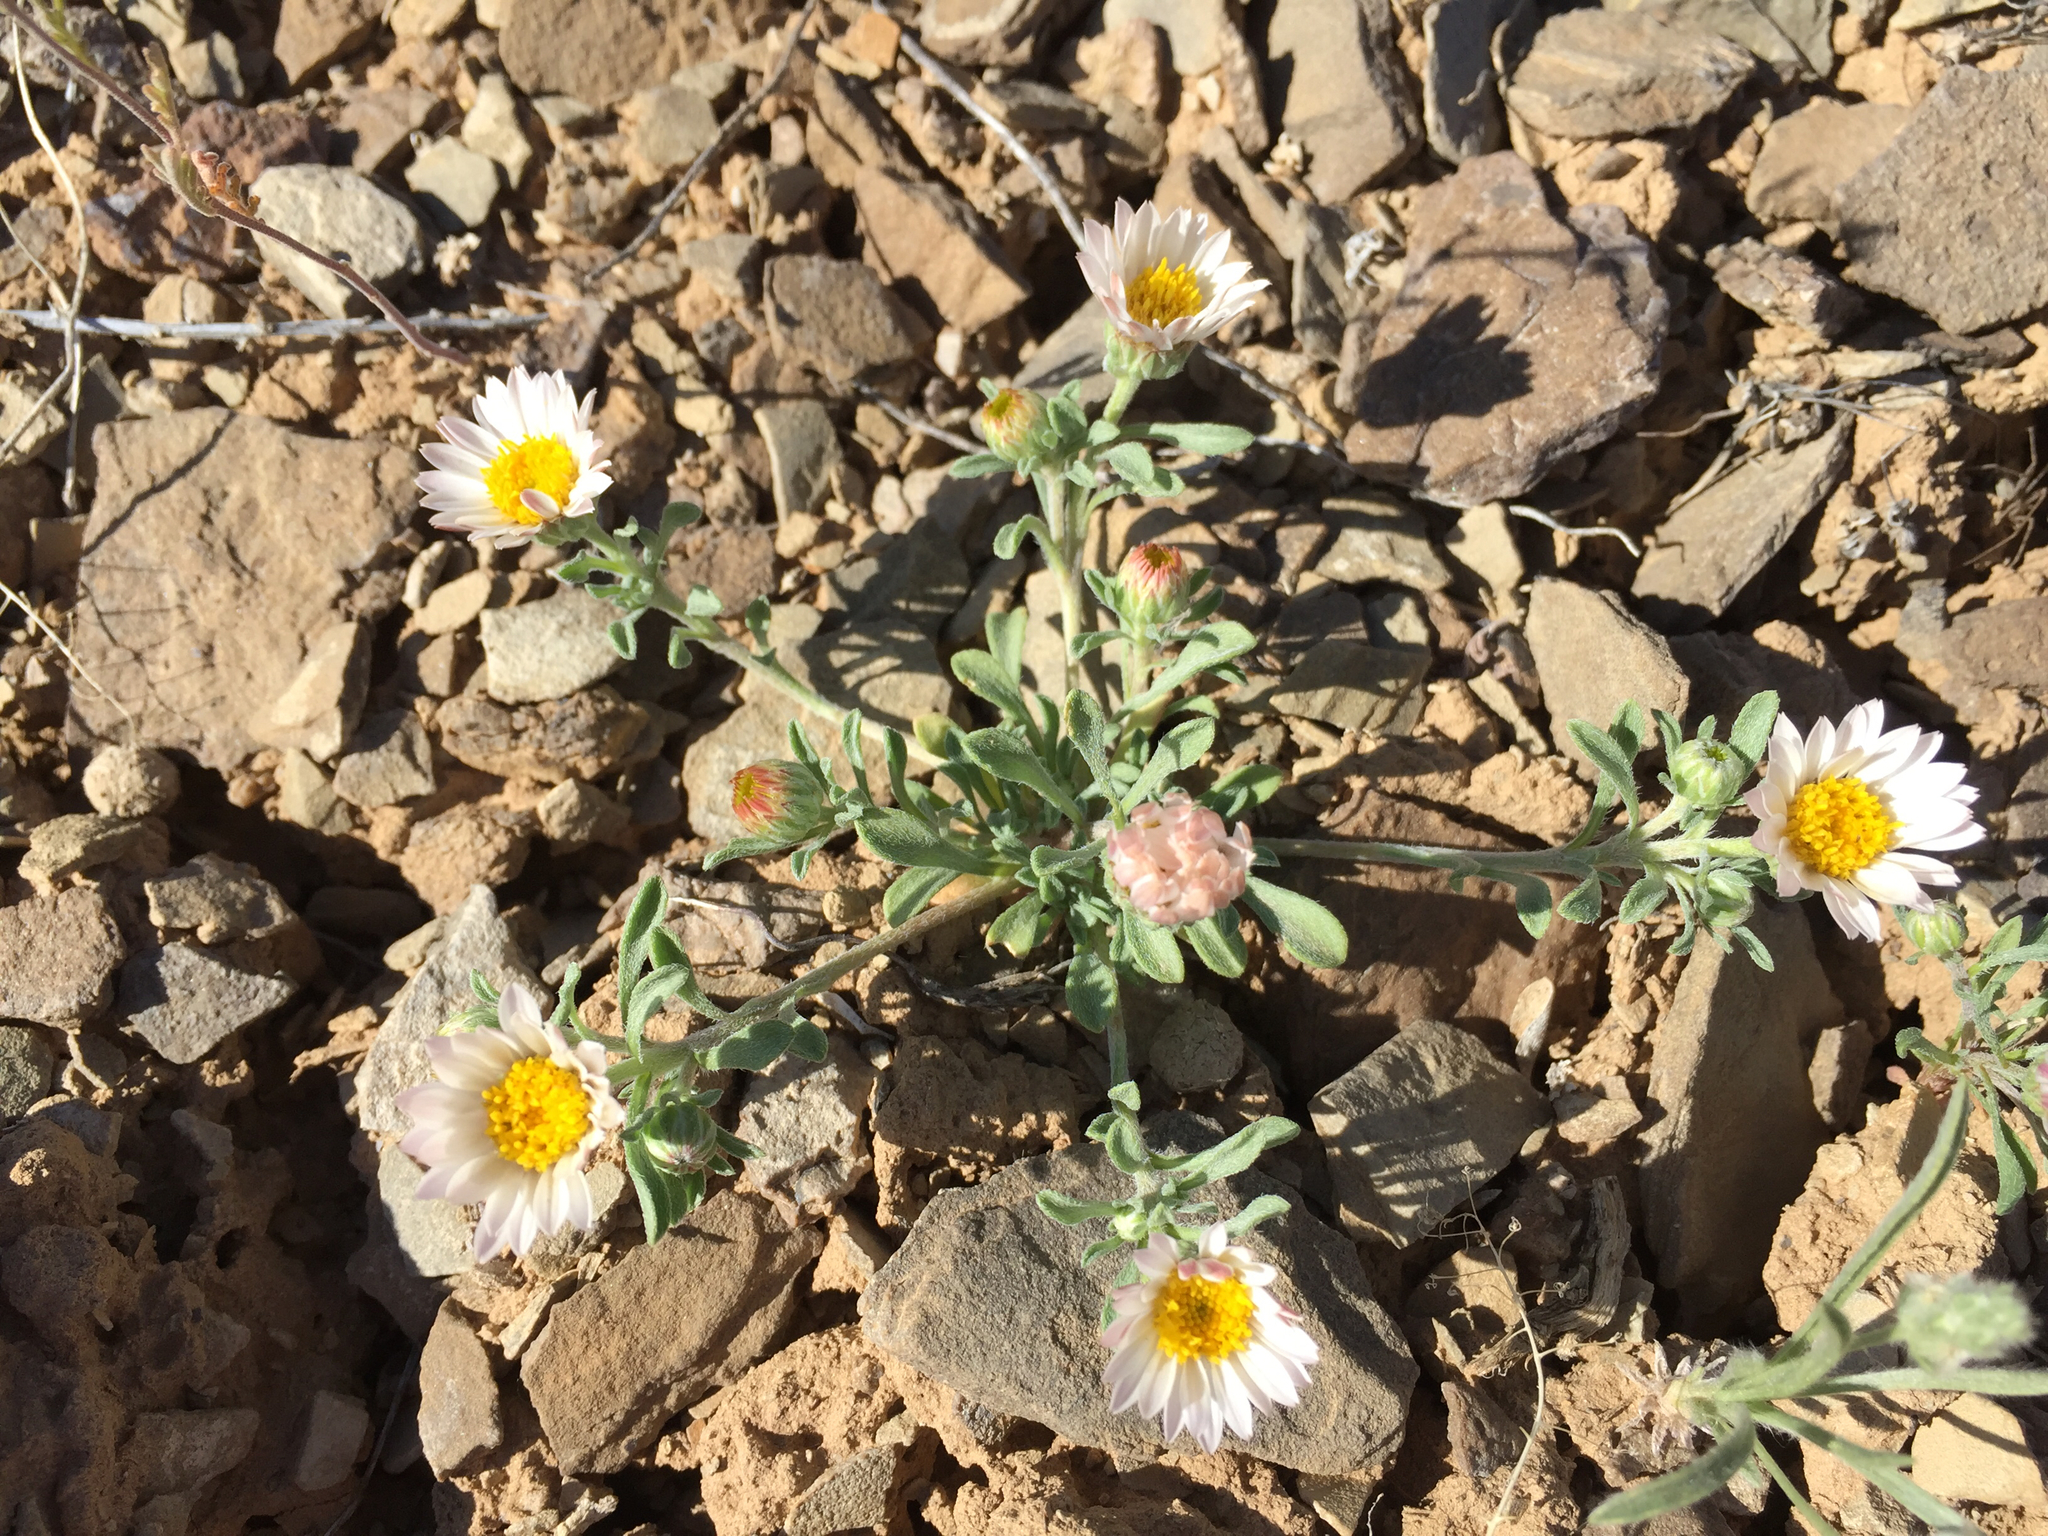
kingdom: Plantae
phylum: Tracheophyta
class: Magnoliopsida
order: Asterales
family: Asteraceae
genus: Townsendia
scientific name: Townsendia annua
